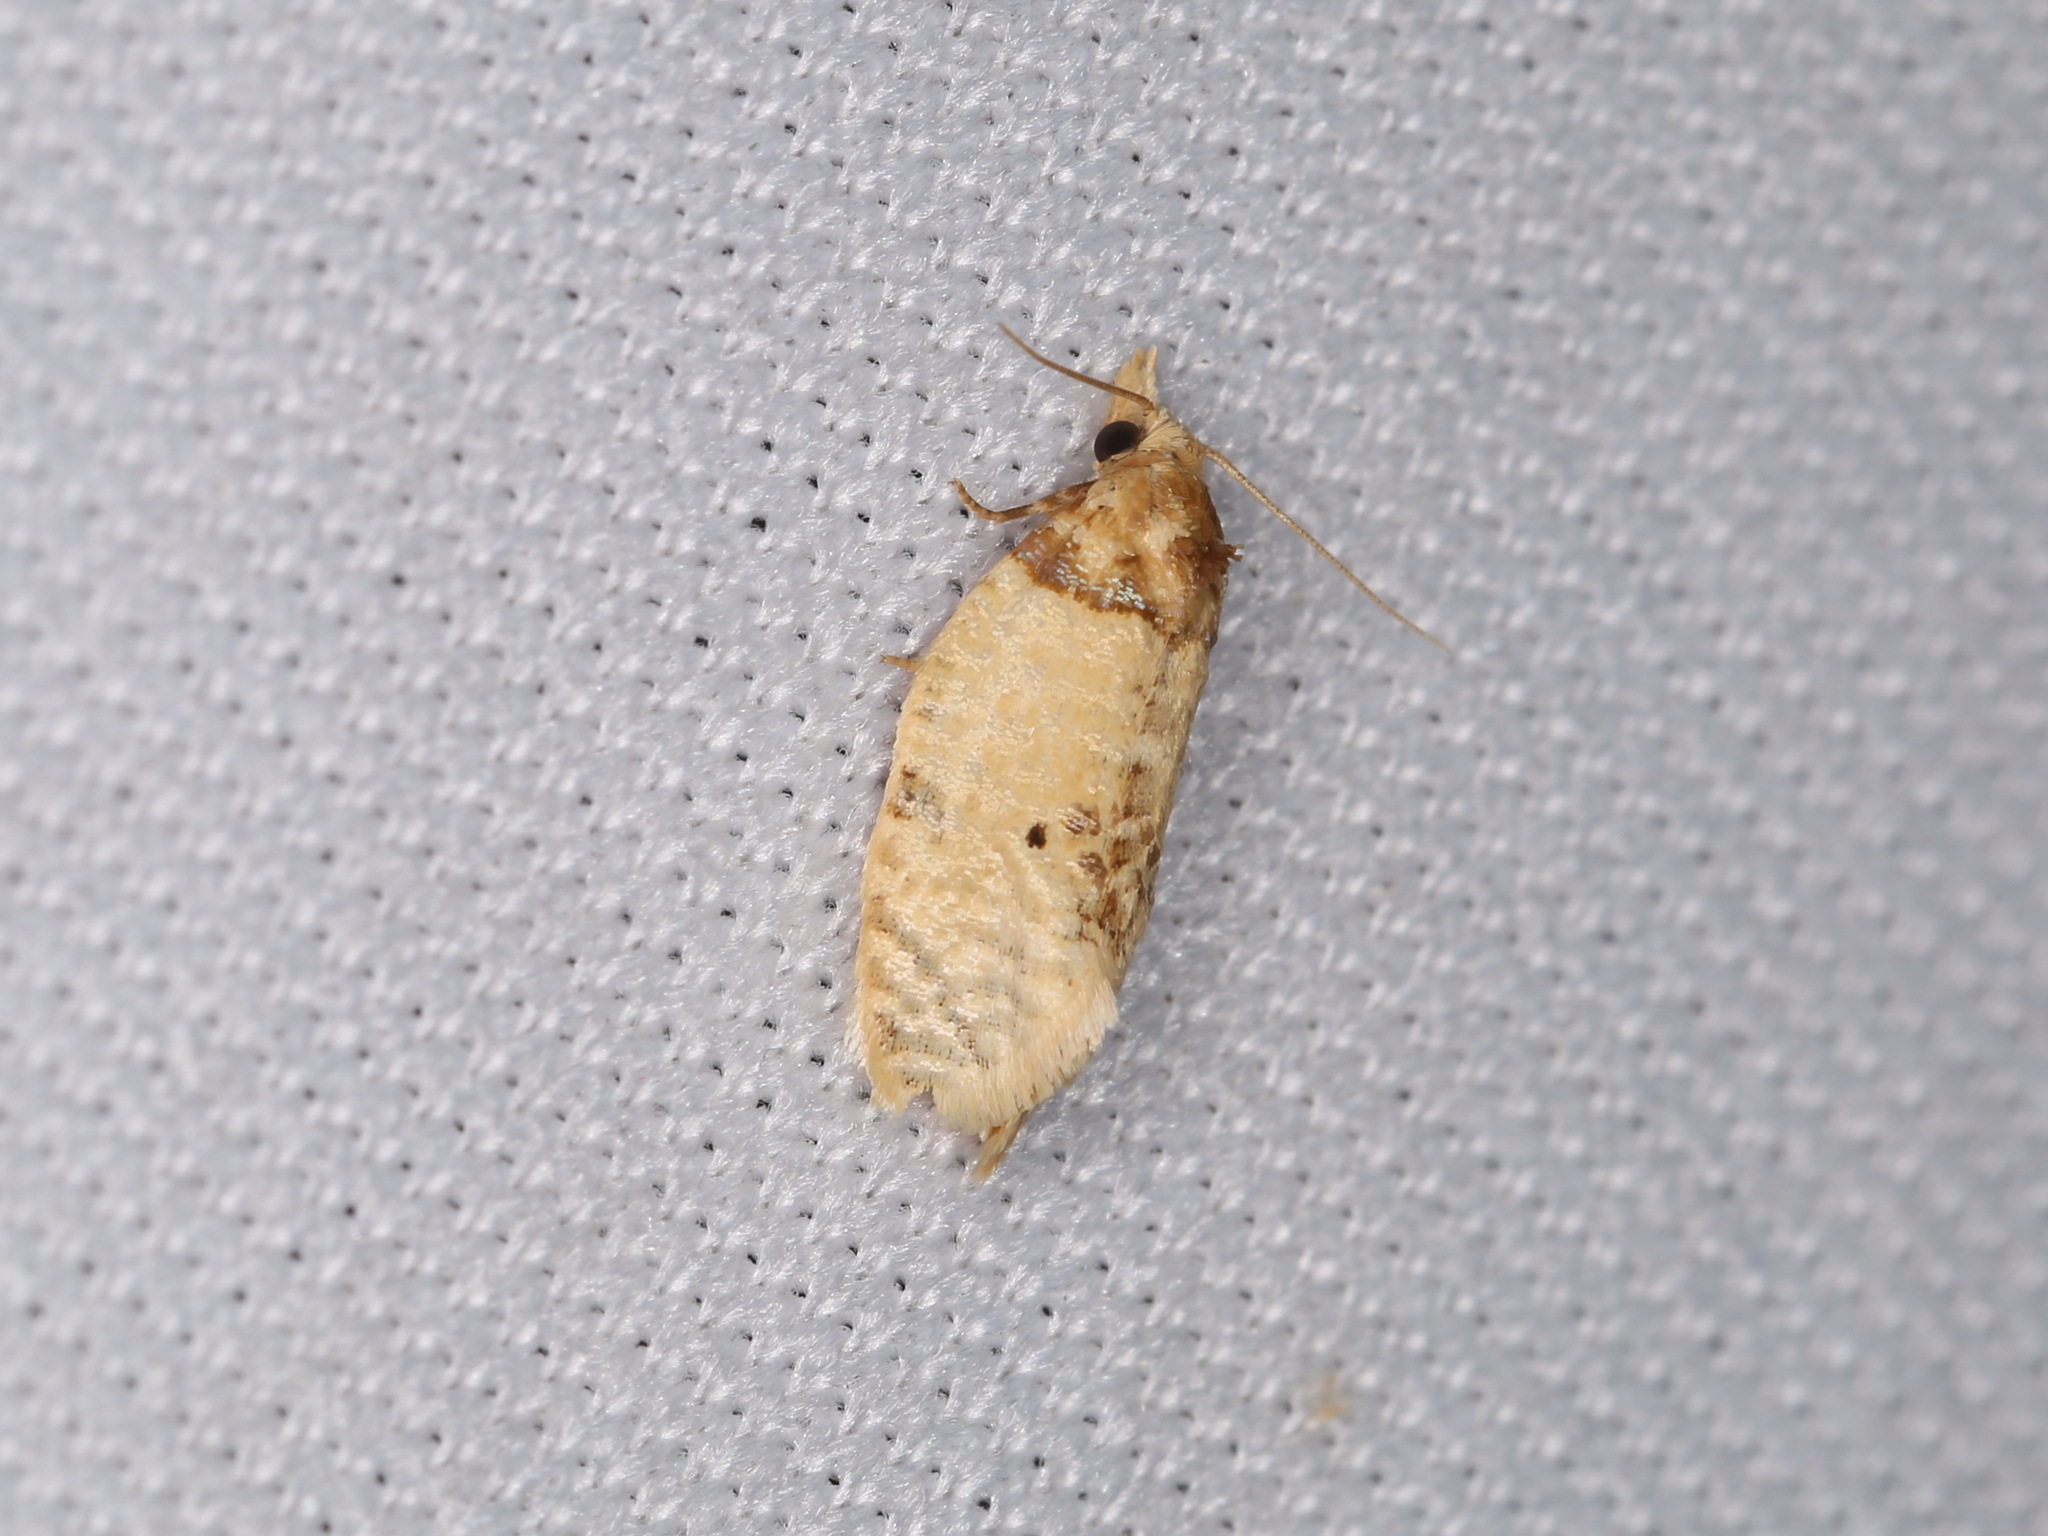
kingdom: Animalia
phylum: Arthropoda
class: Insecta
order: Lepidoptera
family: Tortricidae
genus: Henricus
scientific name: Henricus umbrabasana
